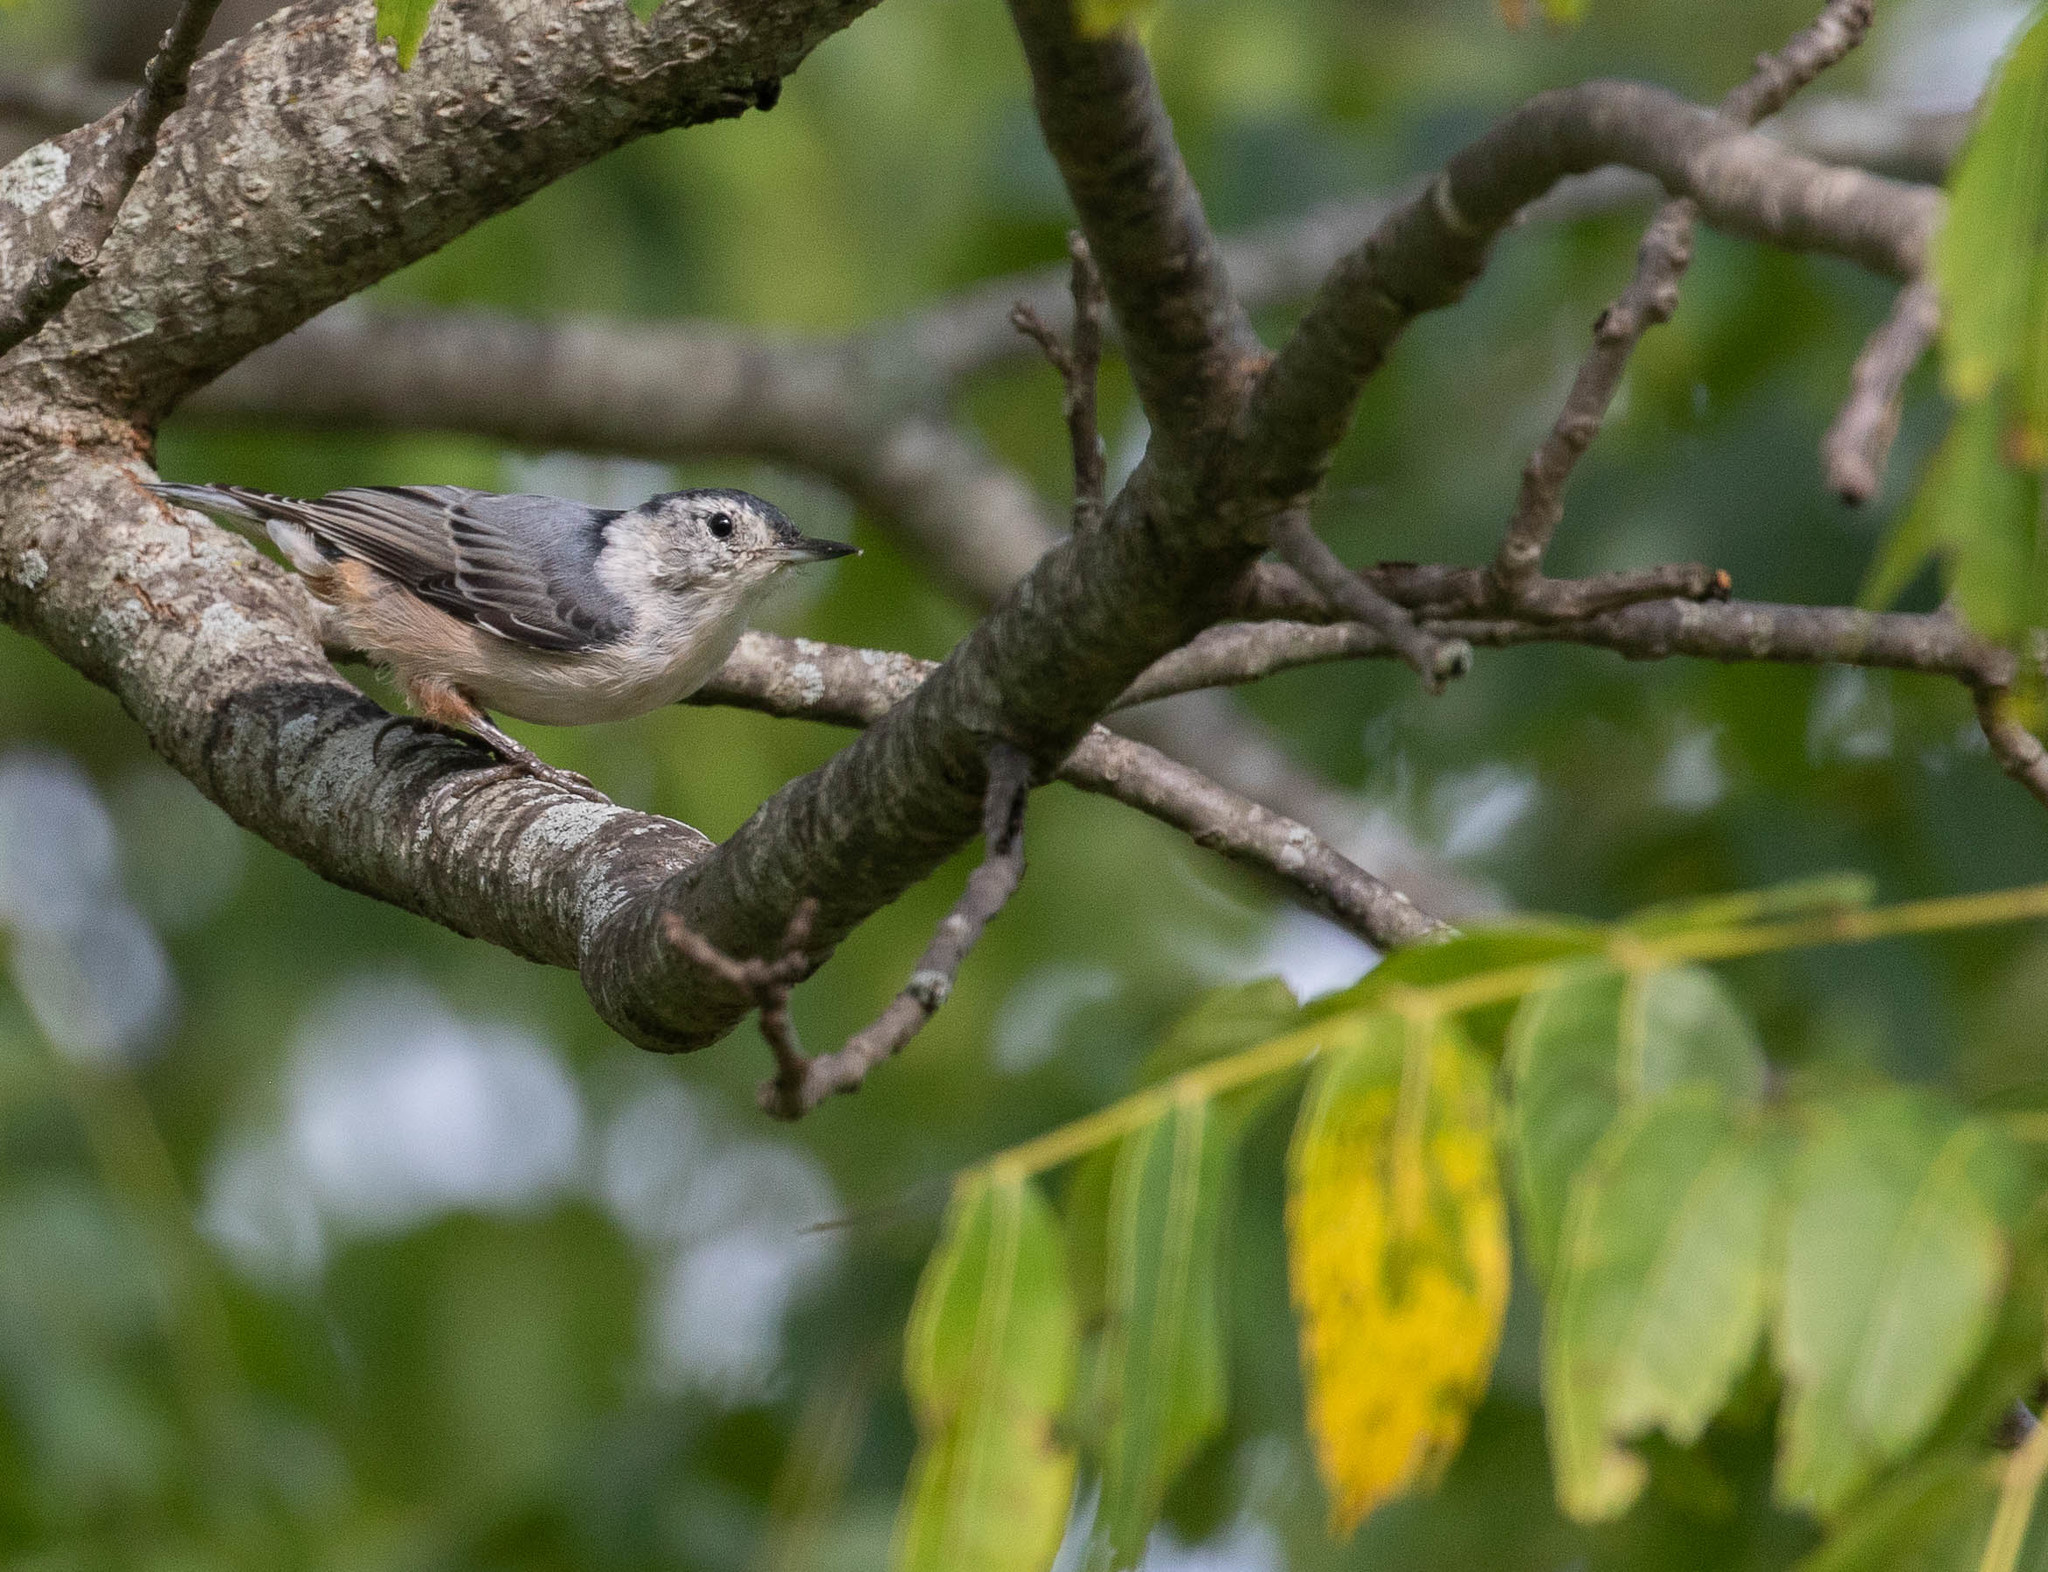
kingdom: Animalia
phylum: Chordata
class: Aves
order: Passeriformes
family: Sittidae
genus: Sitta
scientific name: Sitta carolinensis
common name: White-breasted nuthatch
